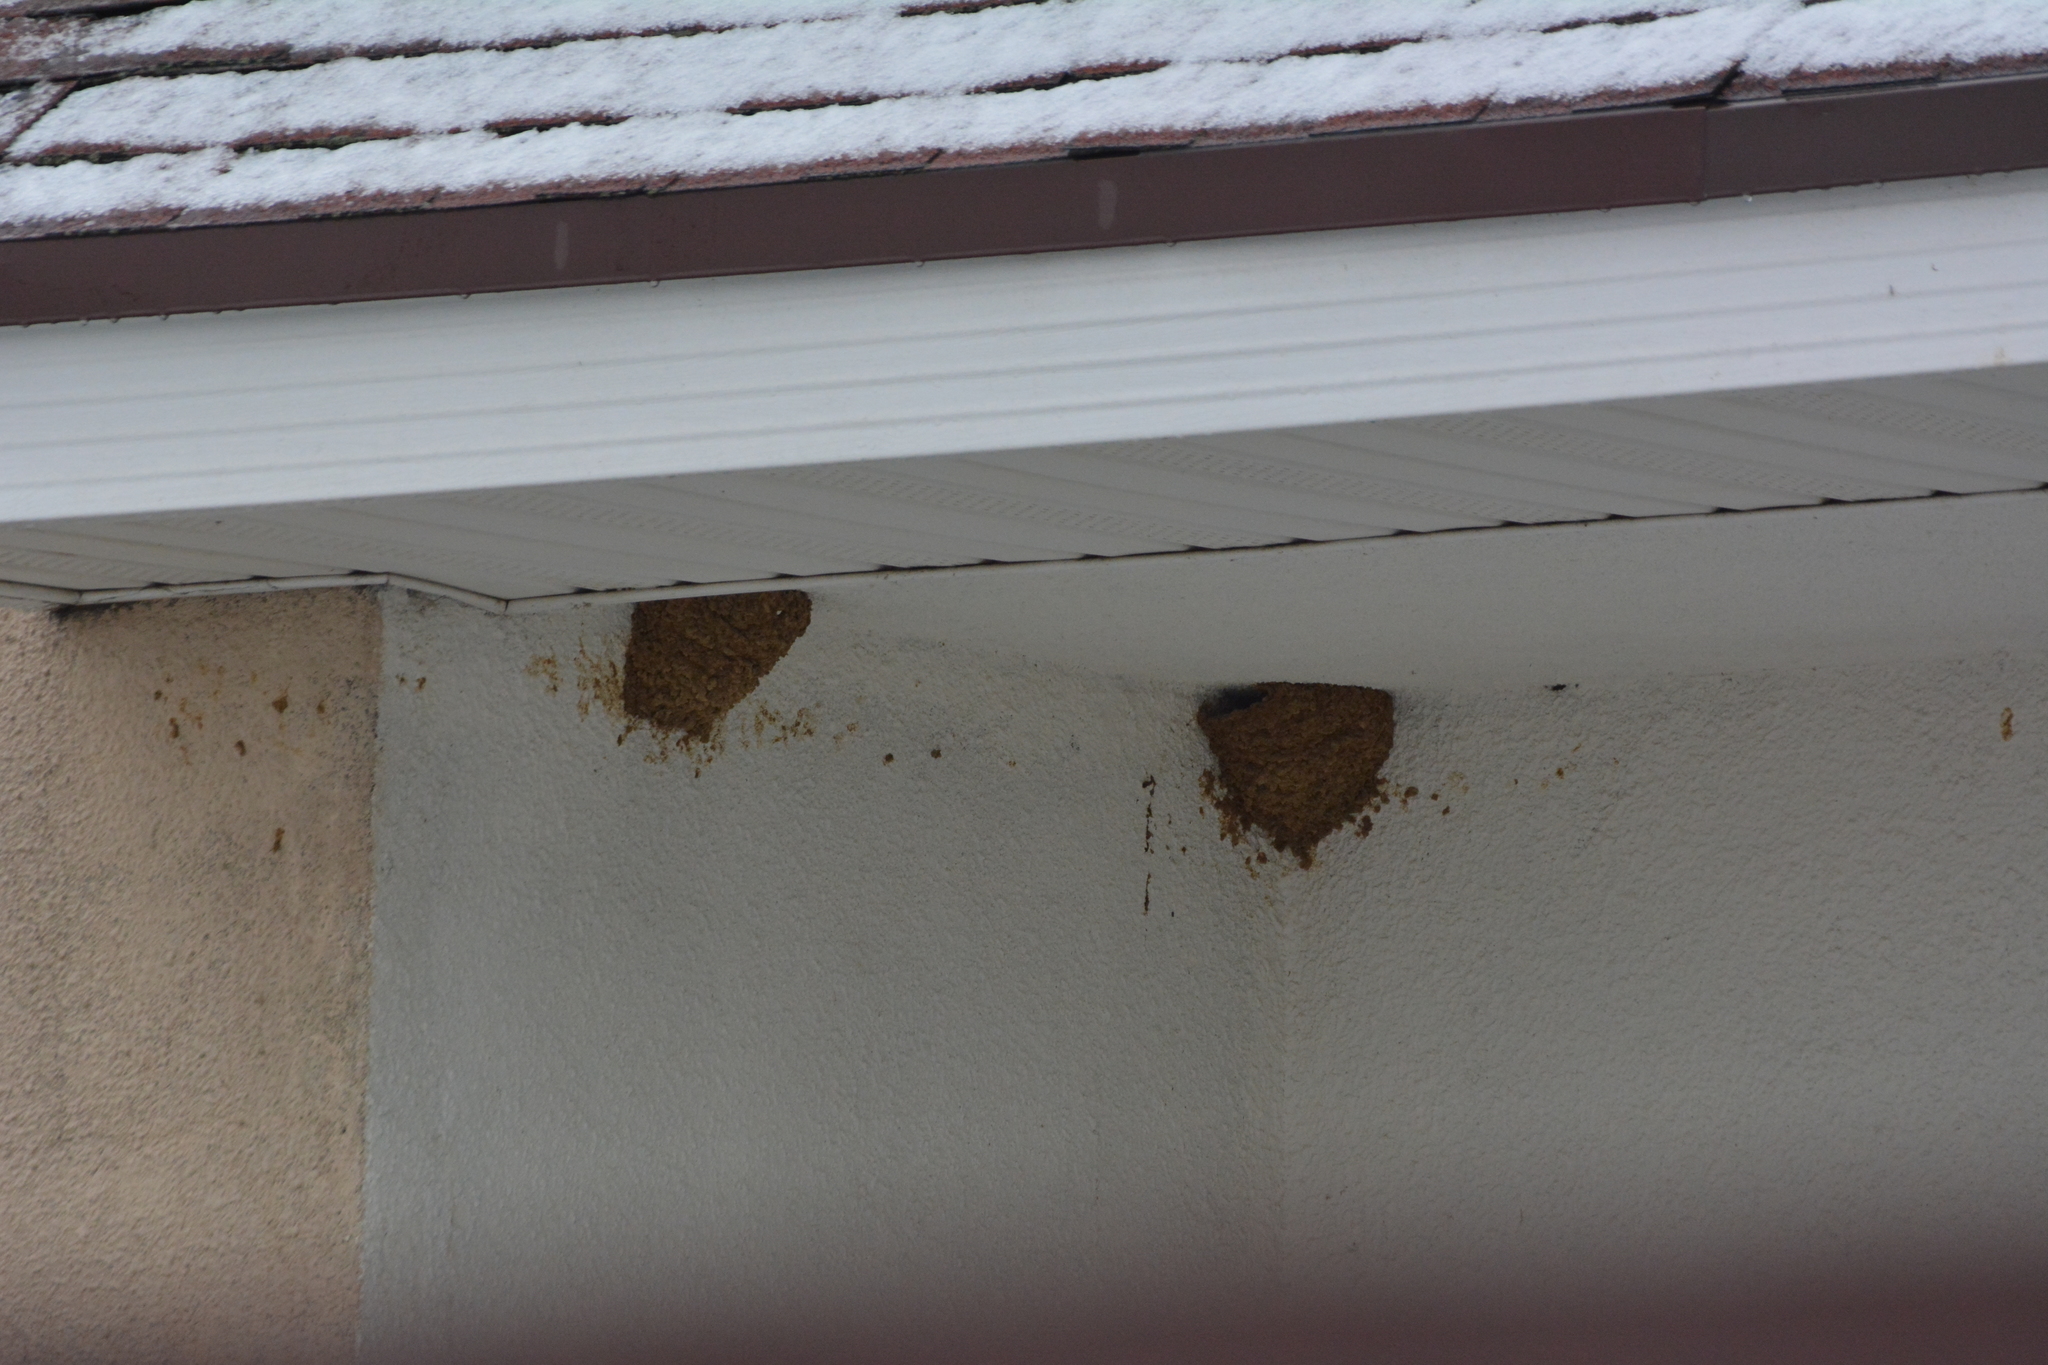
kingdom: Animalia
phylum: Chordata
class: Aves
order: Passeriformes
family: Hirundinidae
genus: Delichon
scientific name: Delichon urbicum
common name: Common house martin
